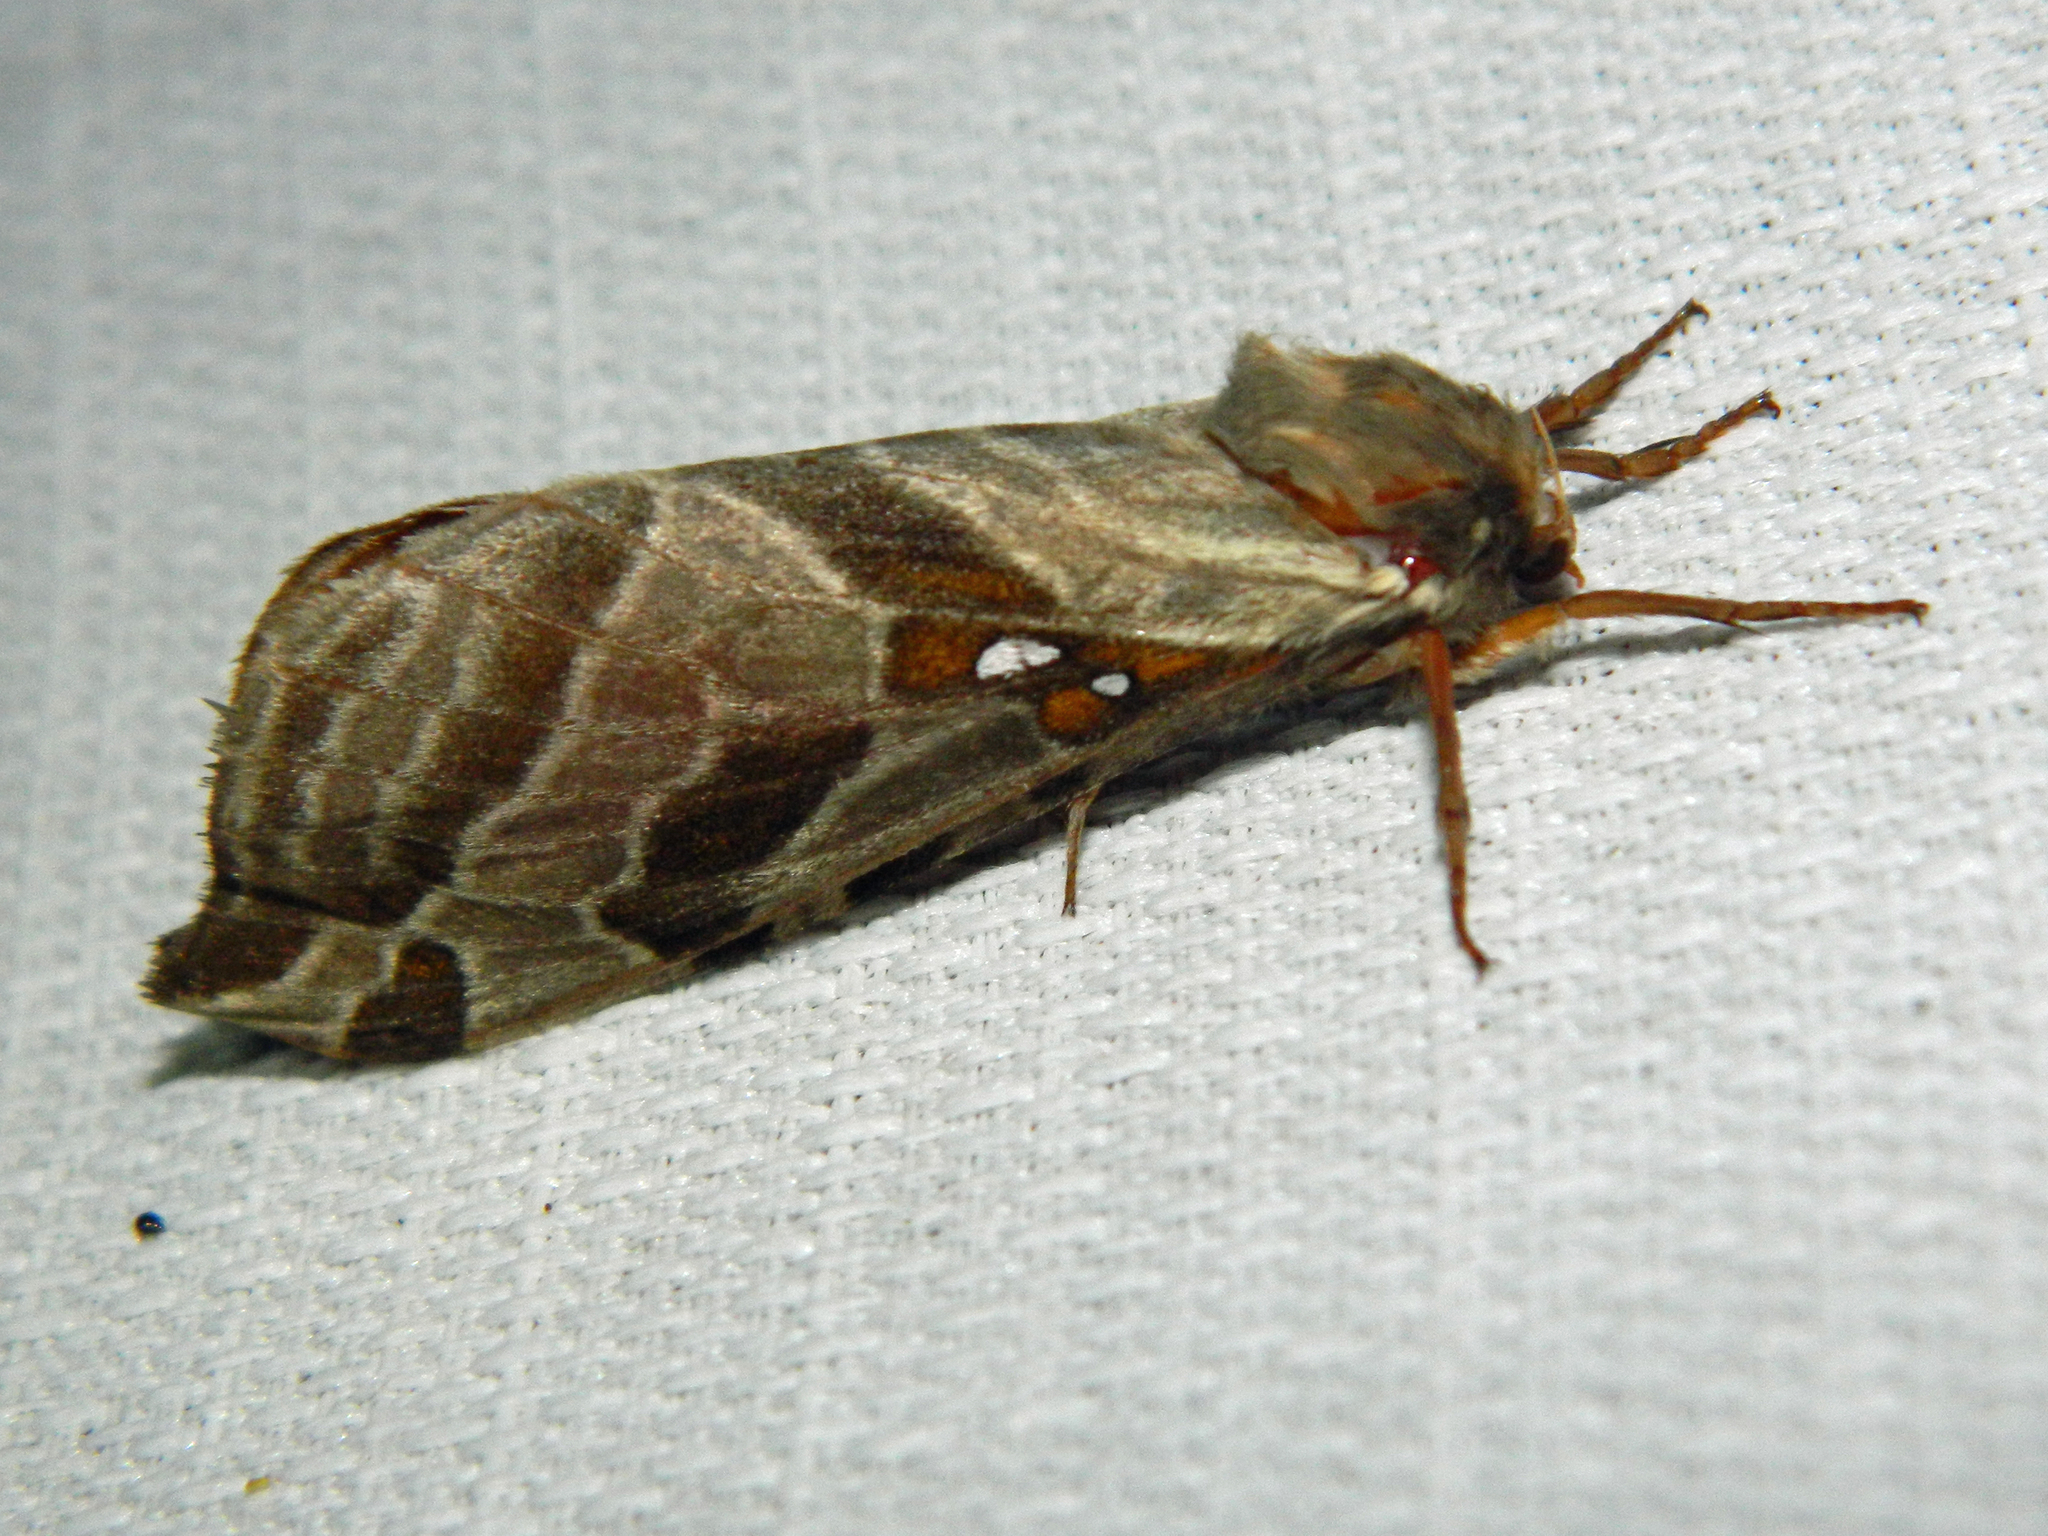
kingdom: Animalia
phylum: Arthropoda
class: Insecta
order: Lepidoptera
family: Hepialidae
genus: Sthenopis
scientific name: Sthenopis argenteomaculatus
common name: Silver-spotted ghost moth
